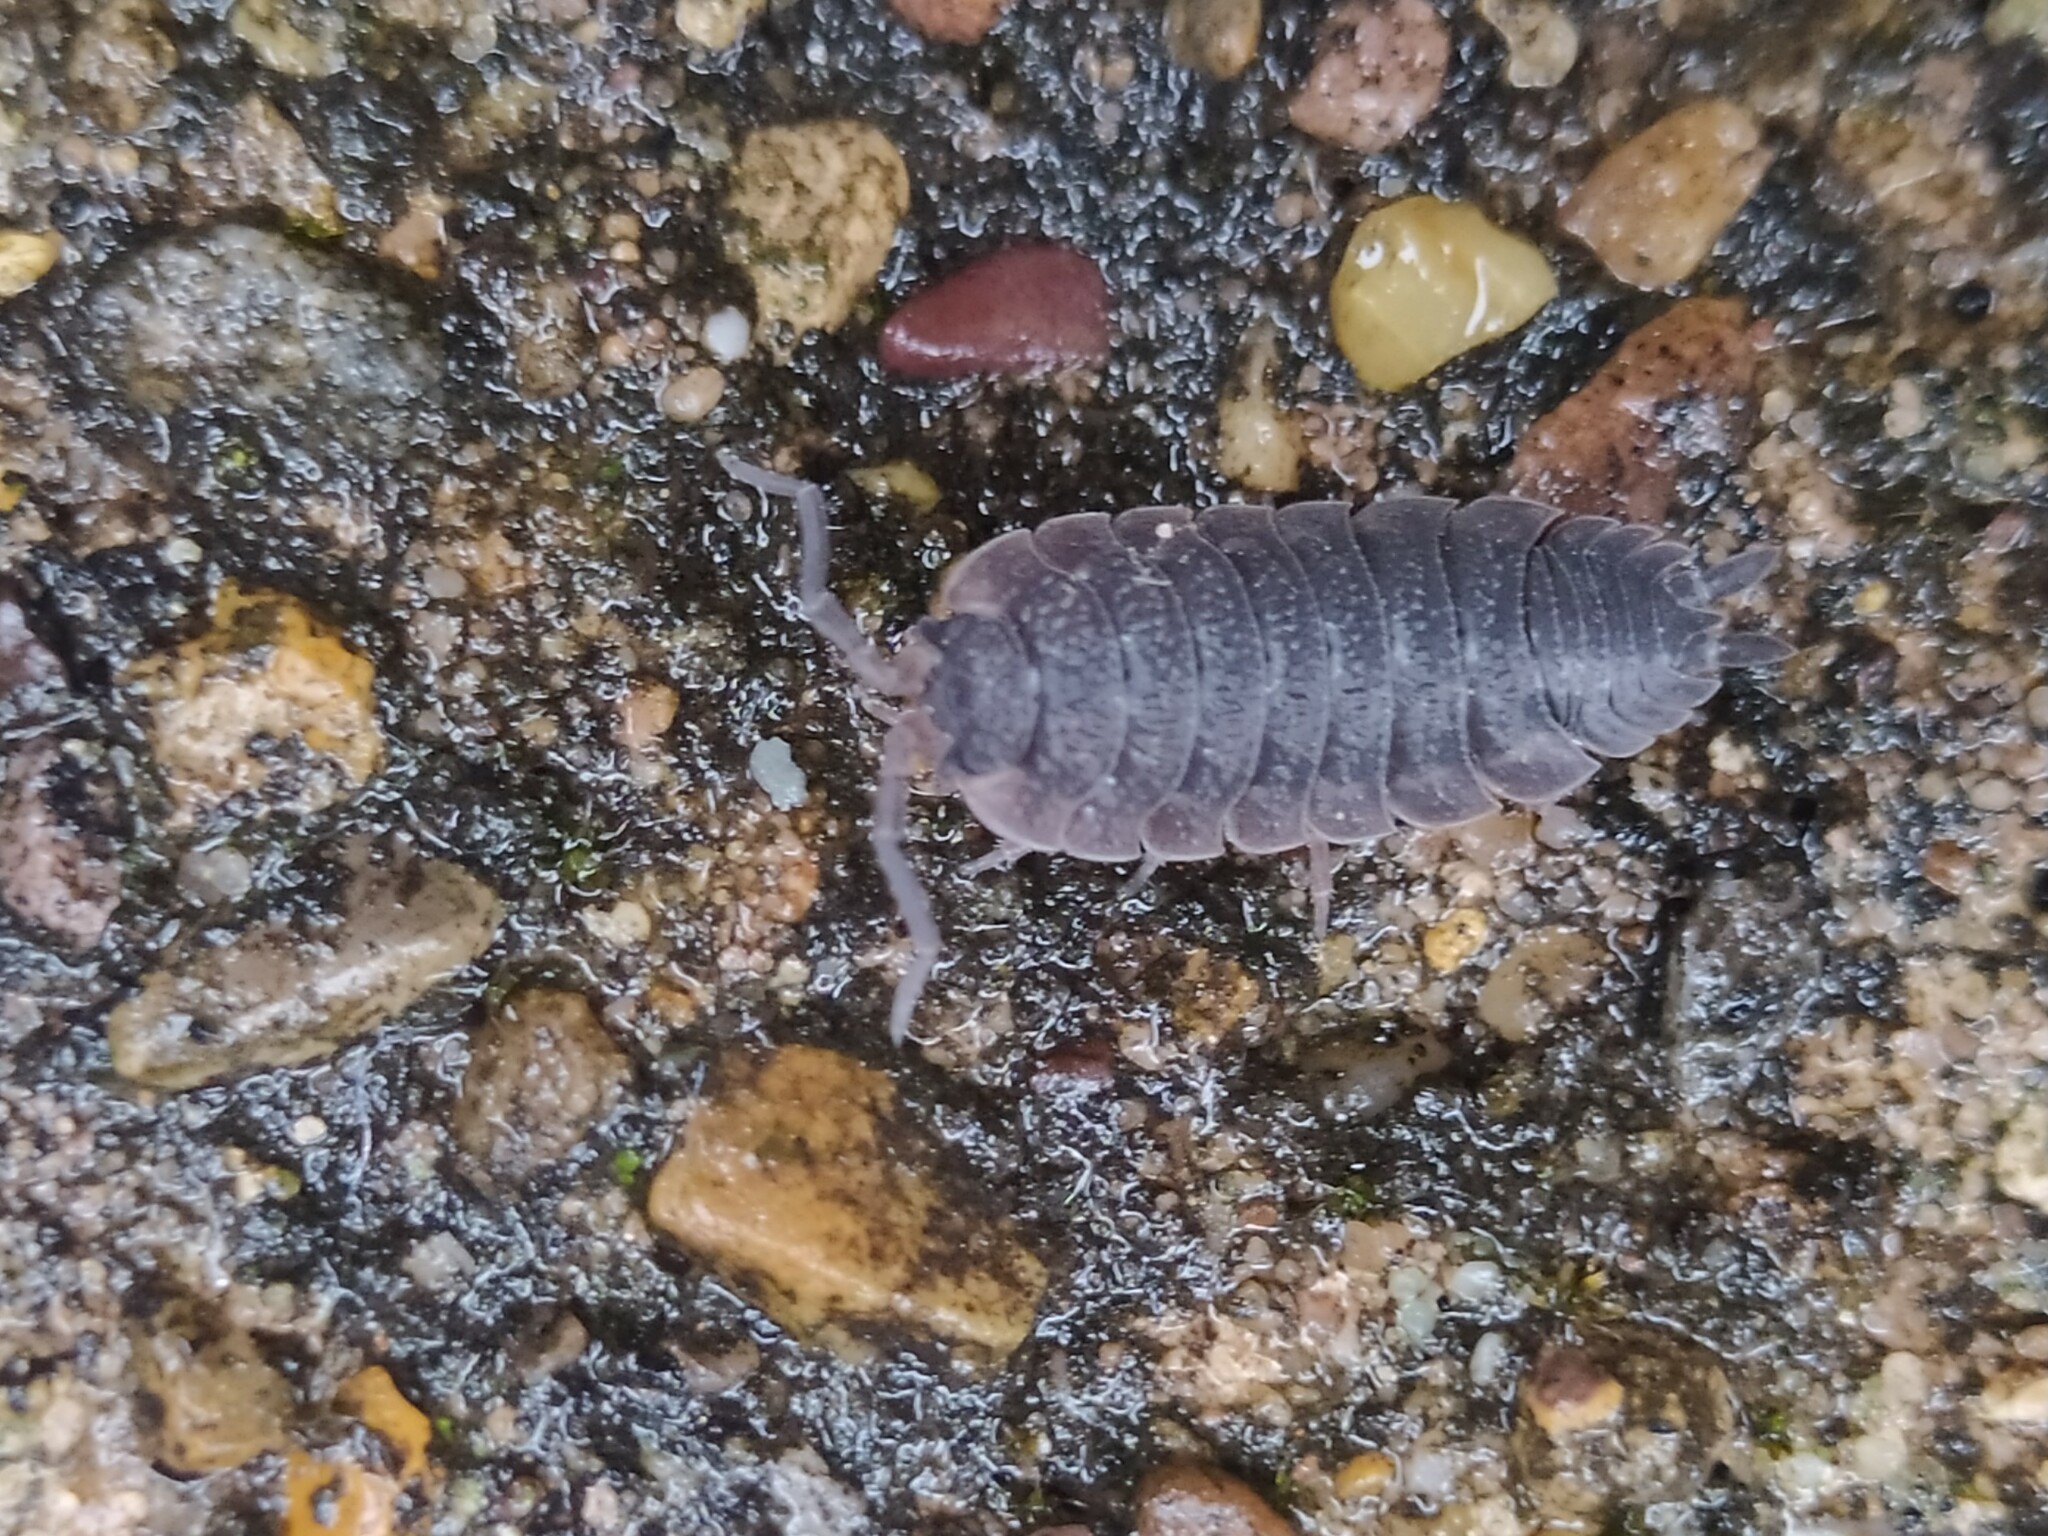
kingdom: Animalia
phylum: Arthropoda
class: Malacostraca
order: Isopoda
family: Porcellionidae
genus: Porcellio
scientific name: Porcellio scaber
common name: Common rough woodlouse
